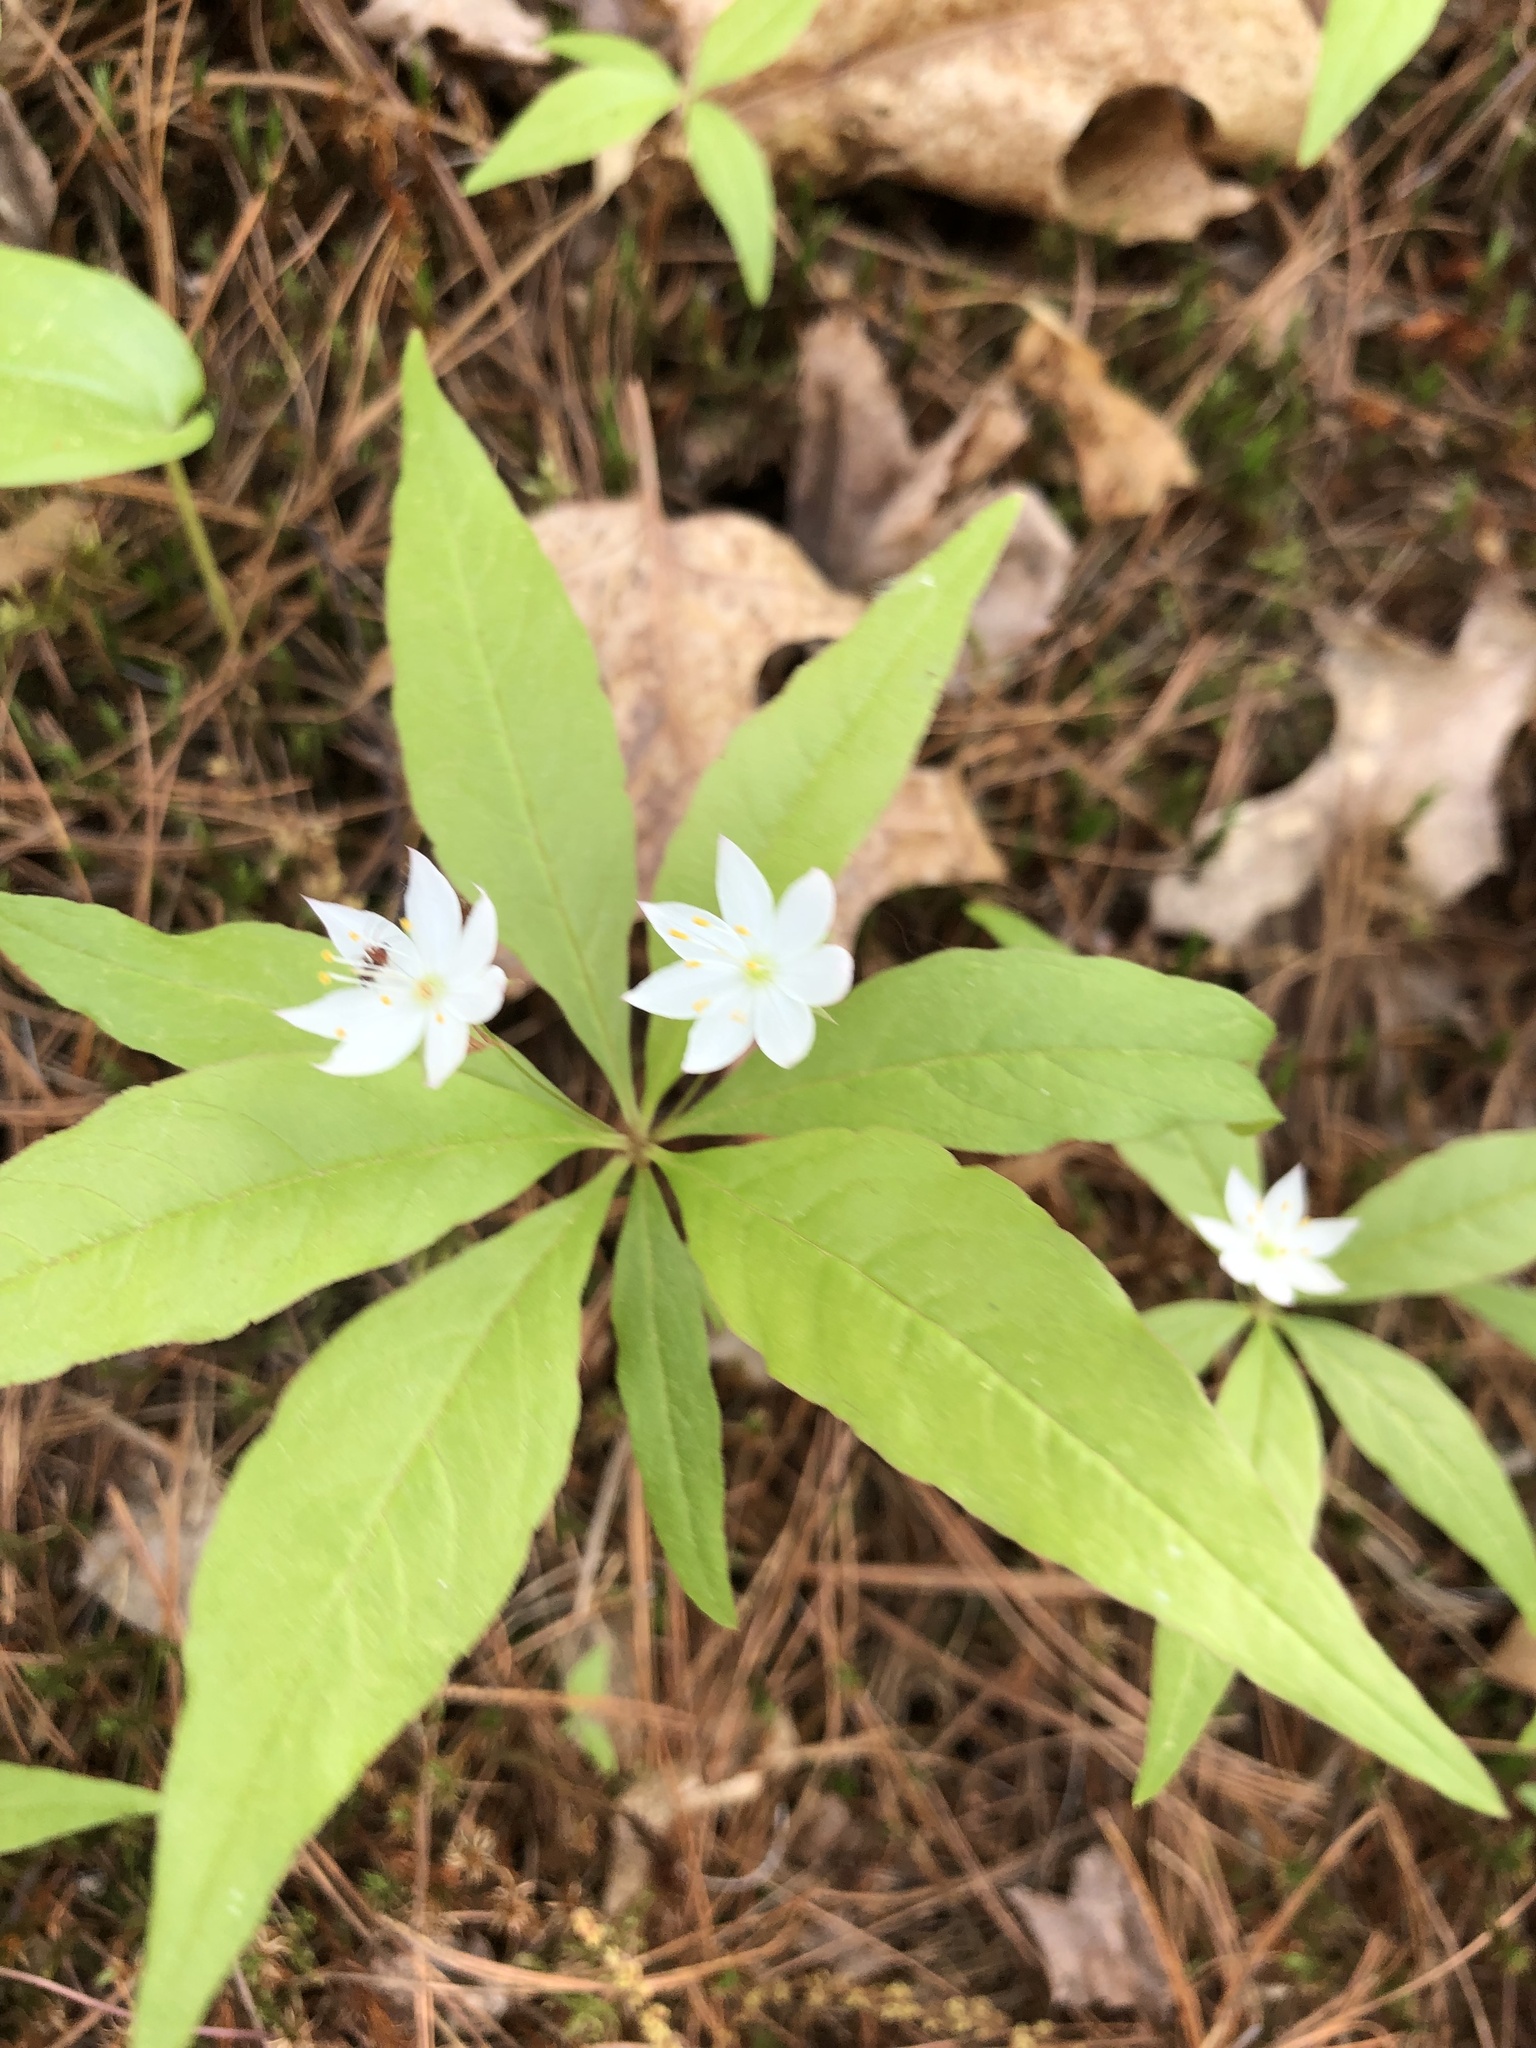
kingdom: Plantae
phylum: Tracheophyta
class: Magnoliopsida
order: Ericales
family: Primulaceae
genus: Lysimachia
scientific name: Lysimachia borealis
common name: American starflower
